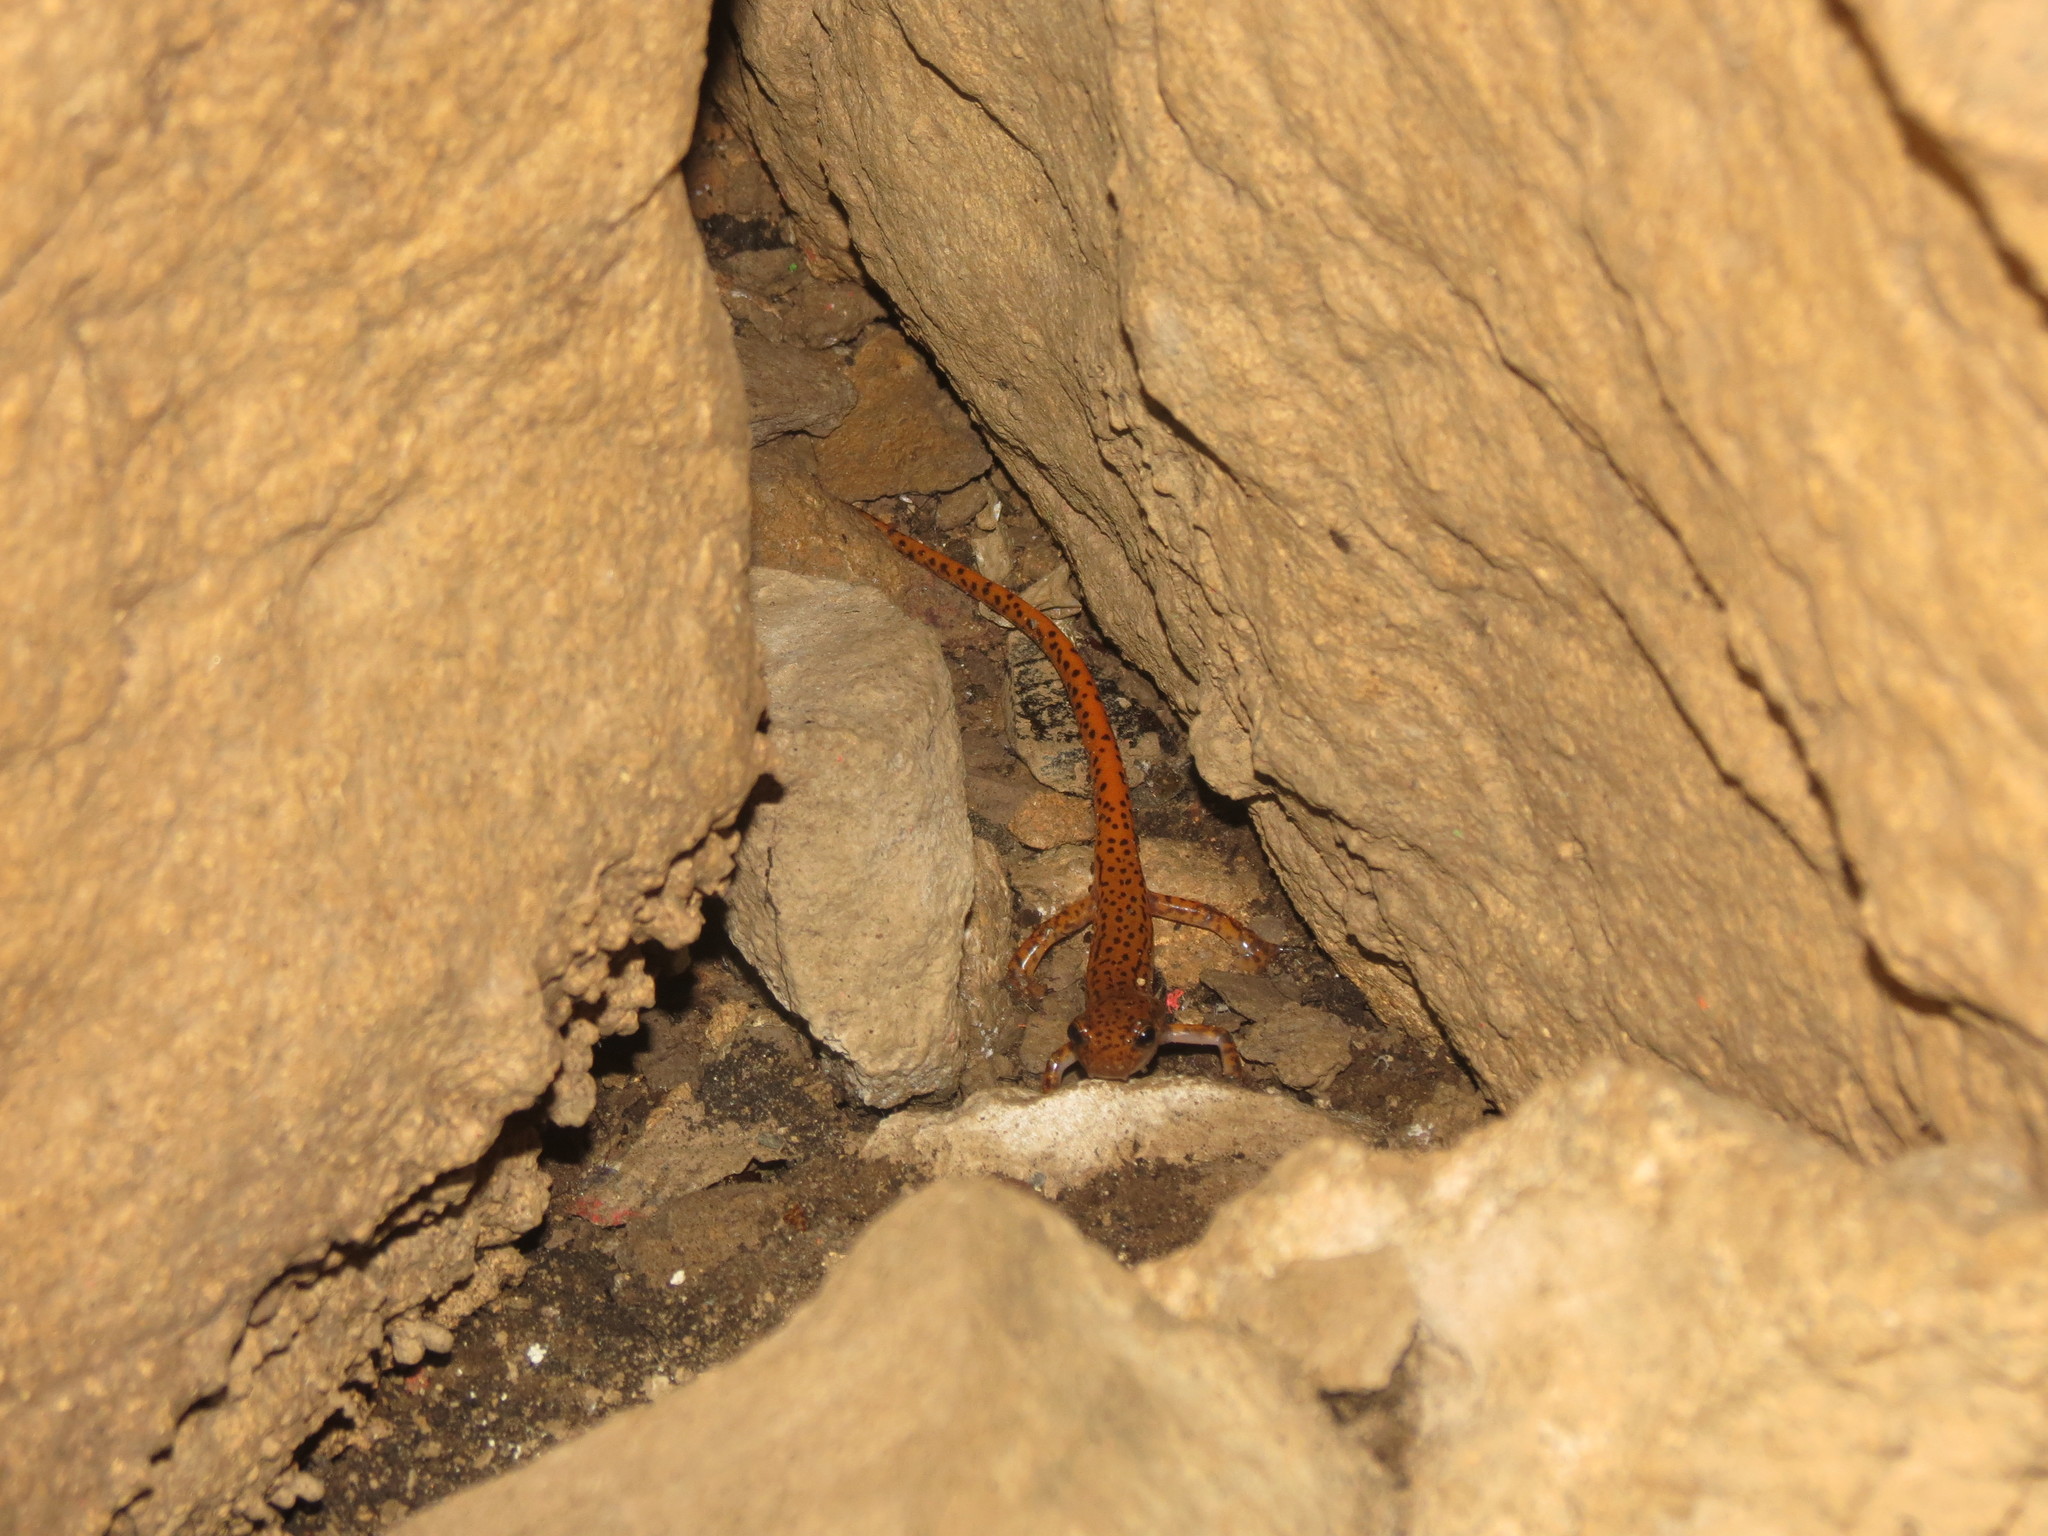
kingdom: Animalia
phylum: Chordata
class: Amphibia
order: Caudata
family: Plethodontidae
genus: Eurycea
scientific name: Eurycea lucifuga
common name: Cave salamander
